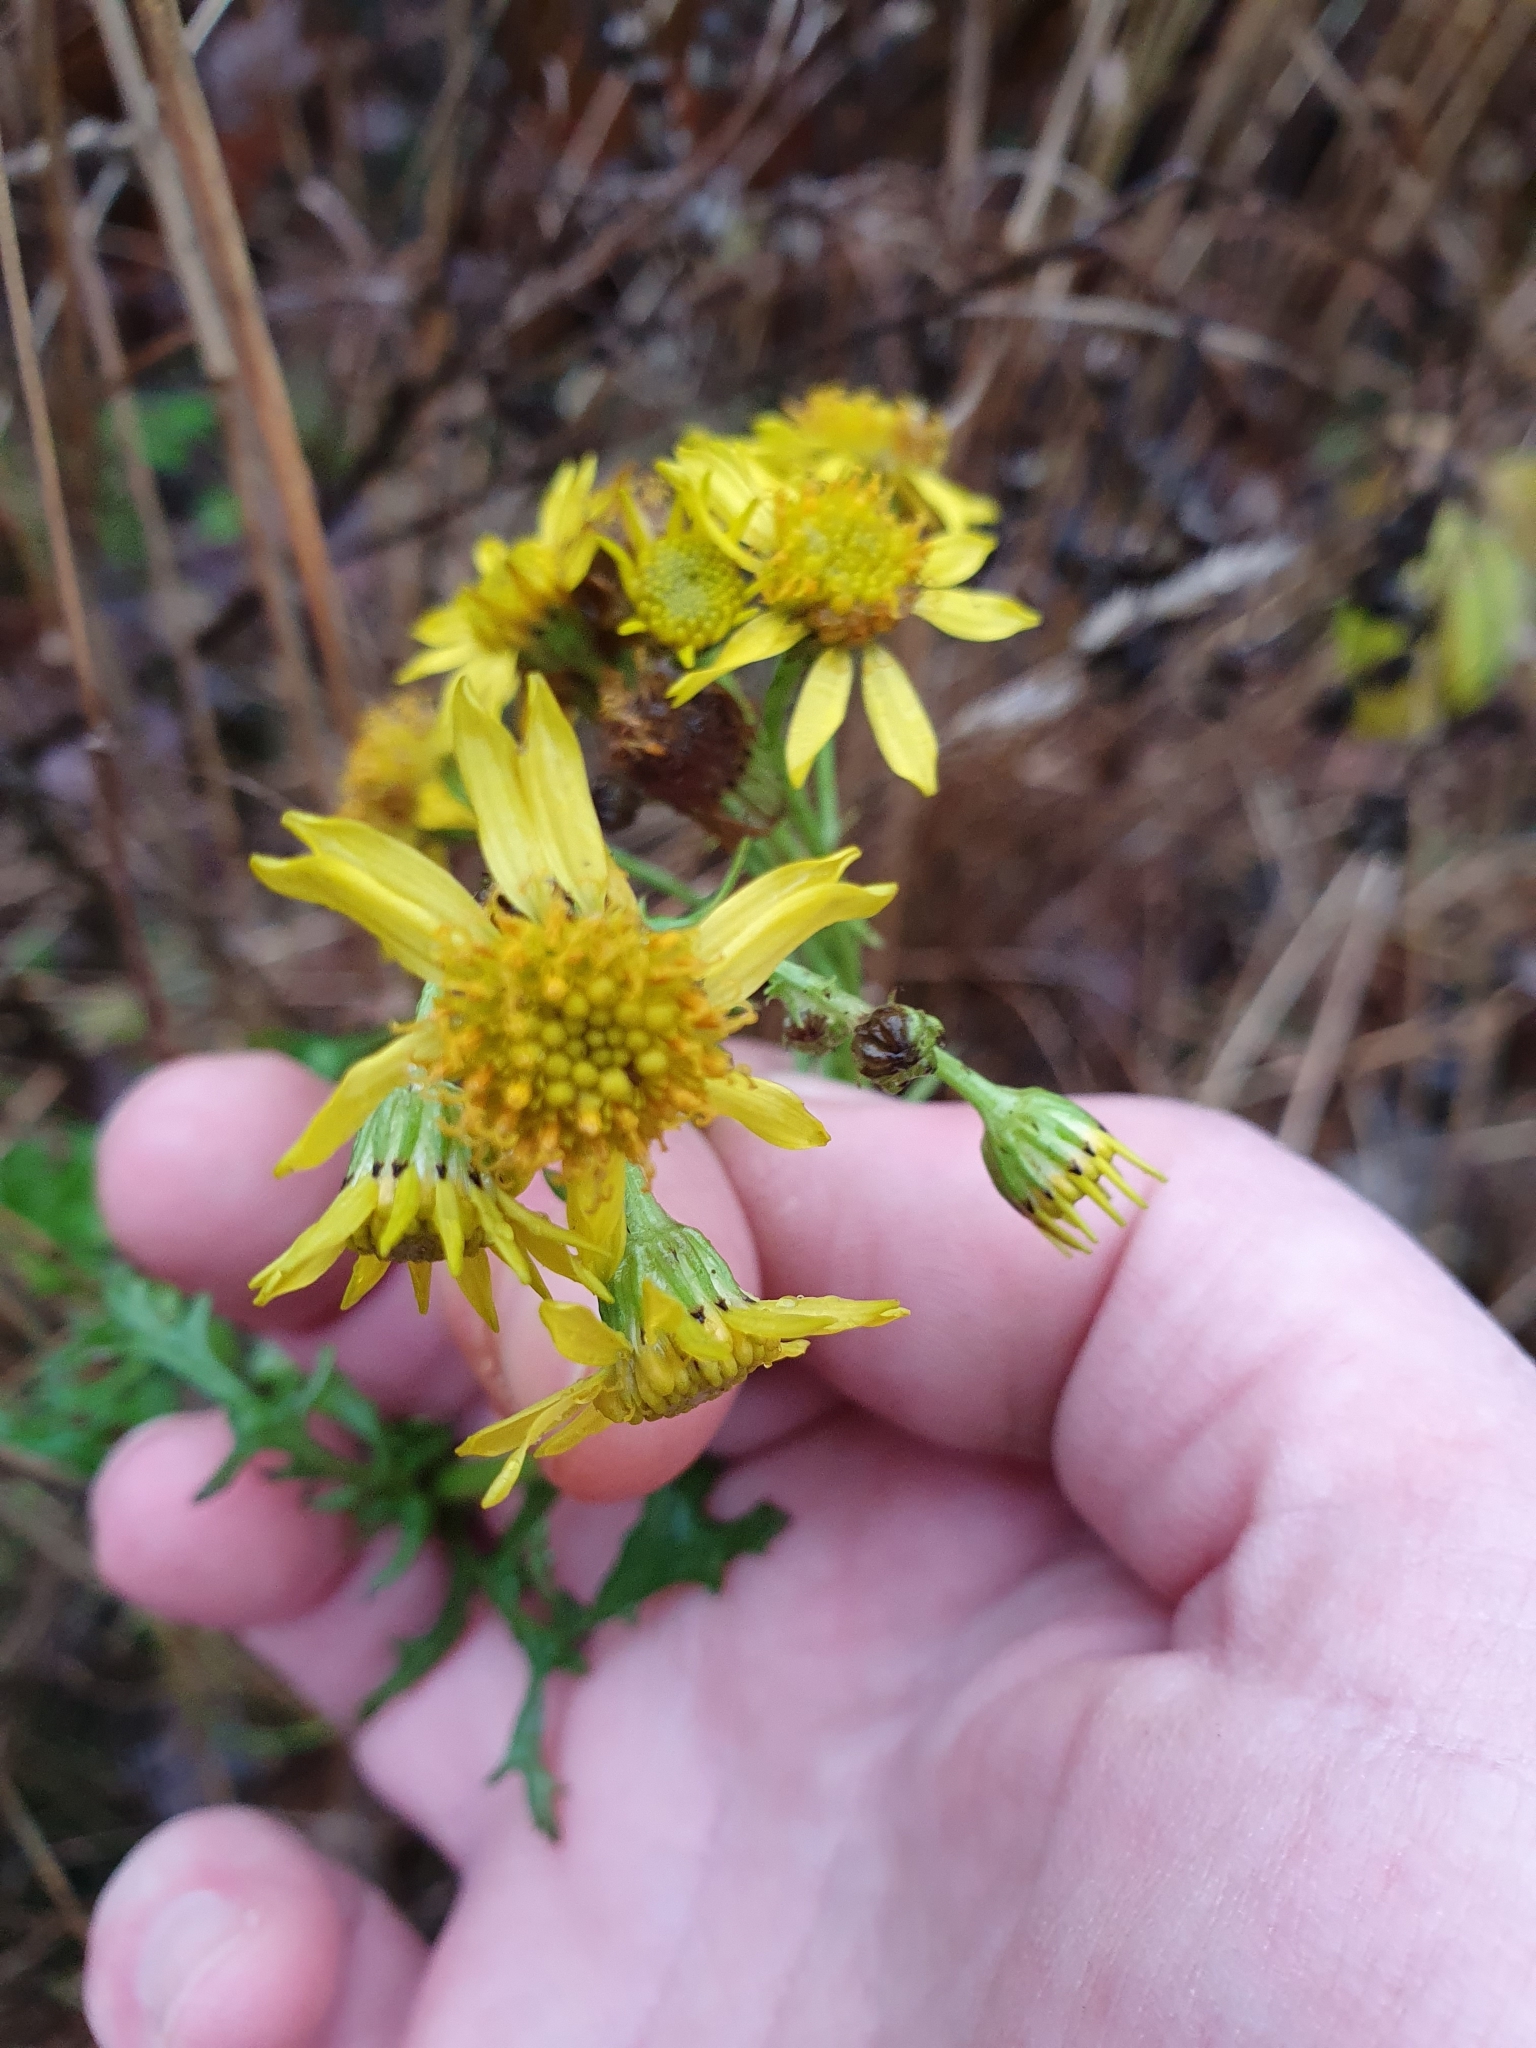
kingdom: Plantae
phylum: Tracheophyta
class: Magnoliopsida
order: Asterales
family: Asteraceae
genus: Jacobaea
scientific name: Jacobaea vulgaris
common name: Stinking willie
